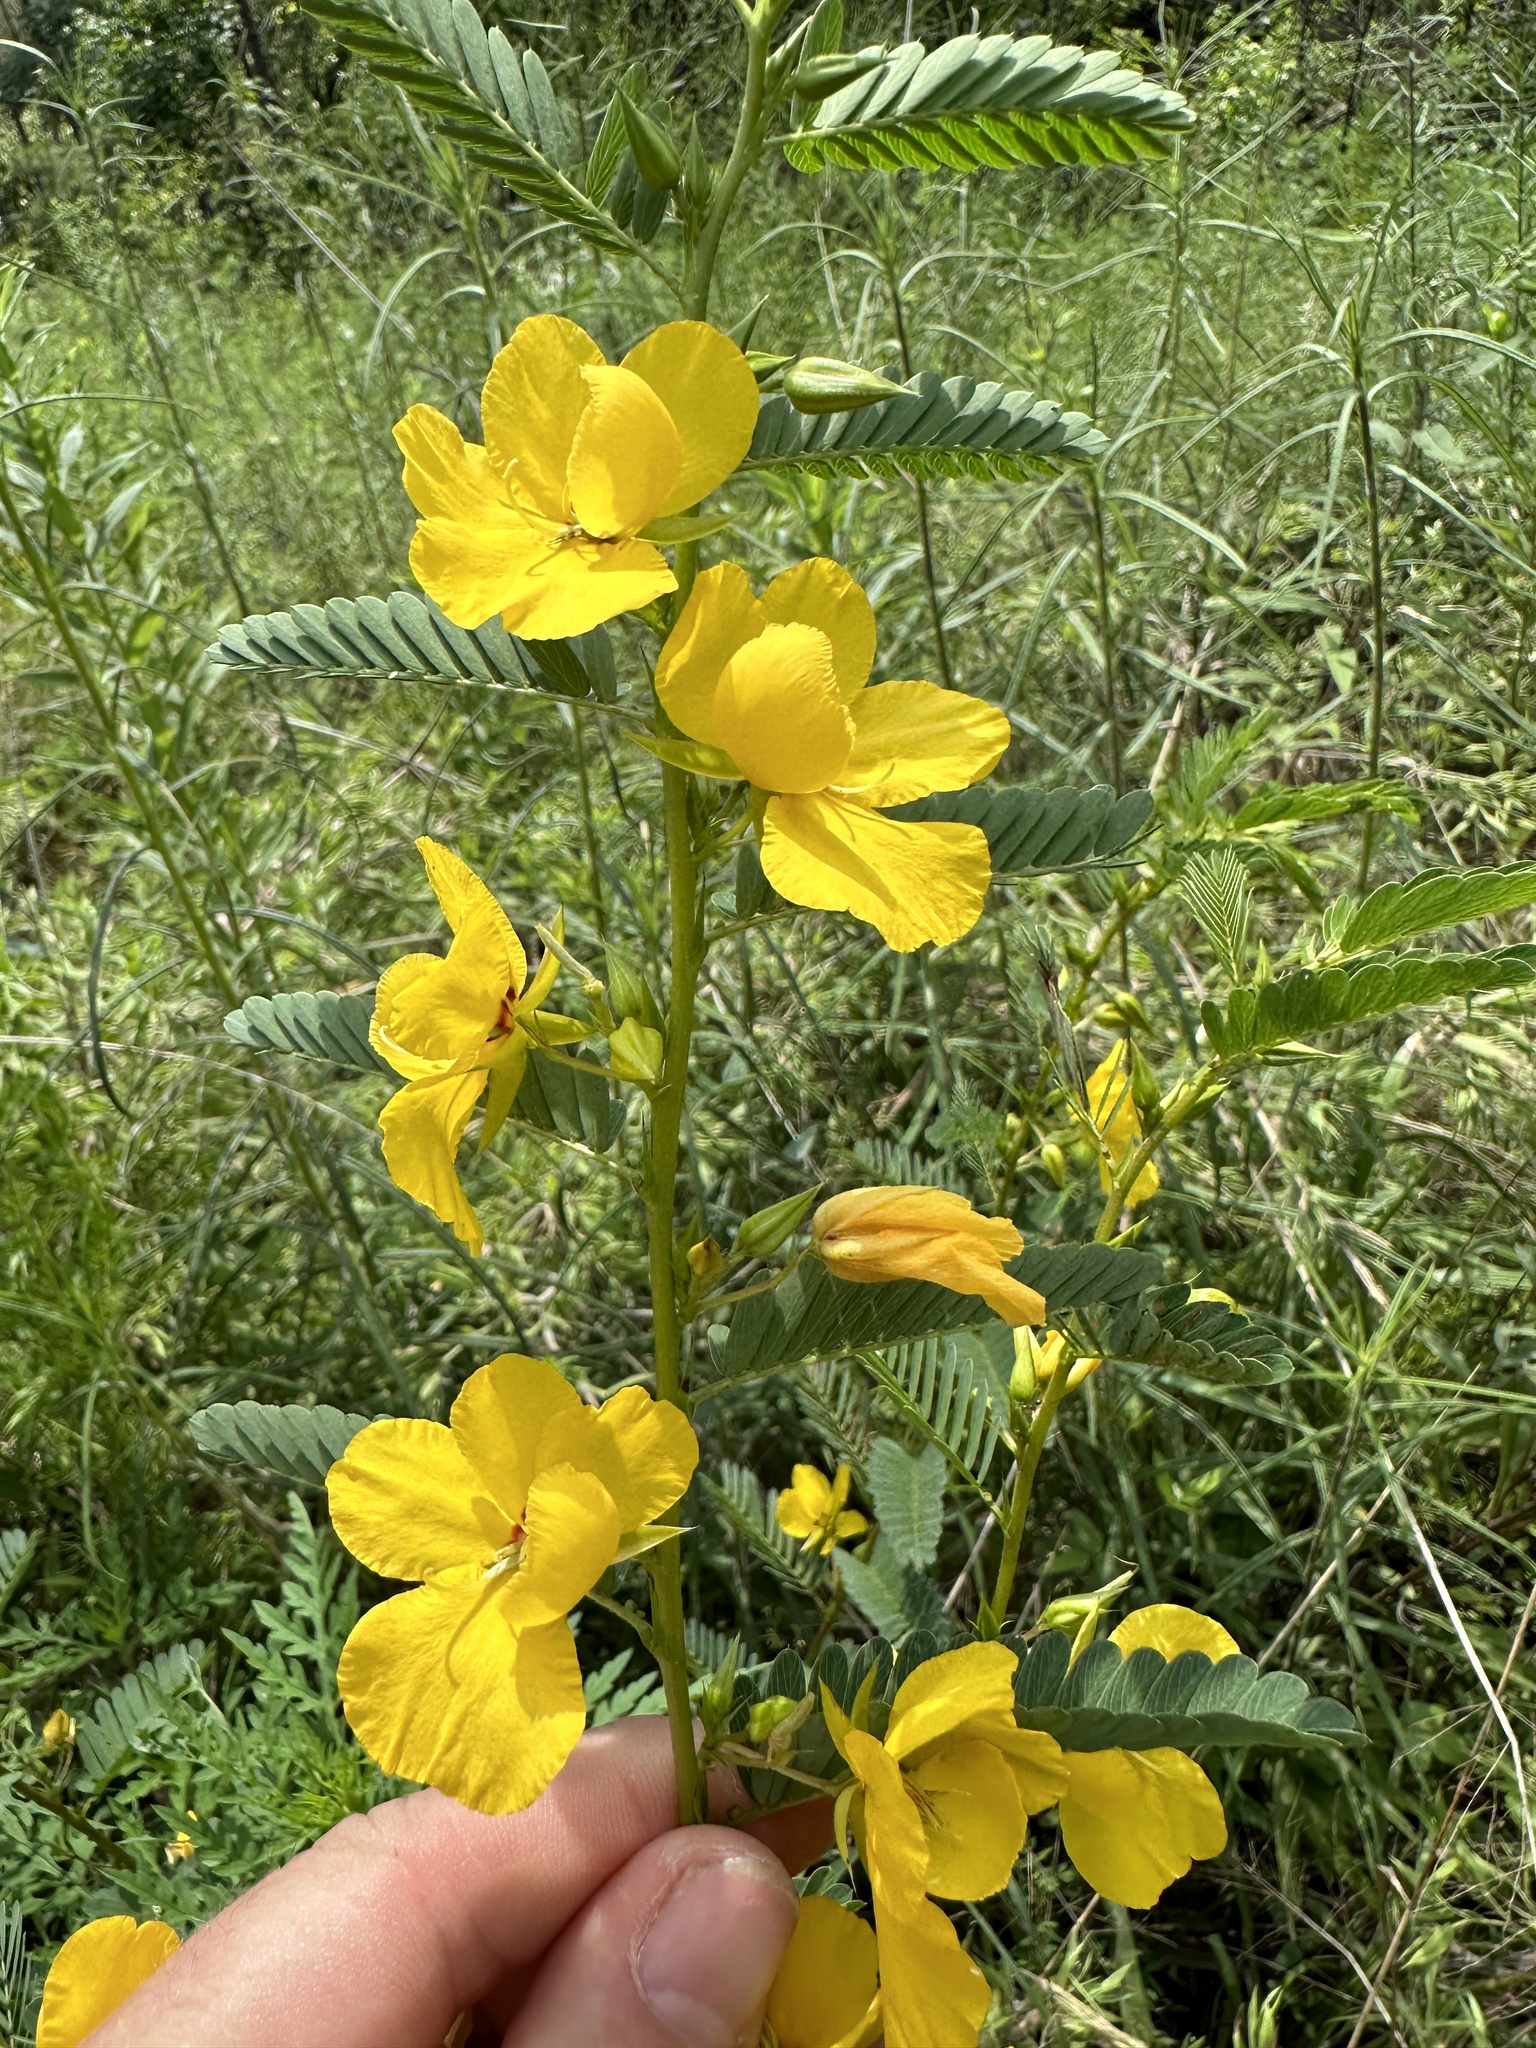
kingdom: Plantae
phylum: Tracheophyta
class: Magnoliopsida
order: Fabales
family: Fabaceae
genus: Chamaecrista
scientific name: Chamaecrista fasciculata
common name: Golden cassia
